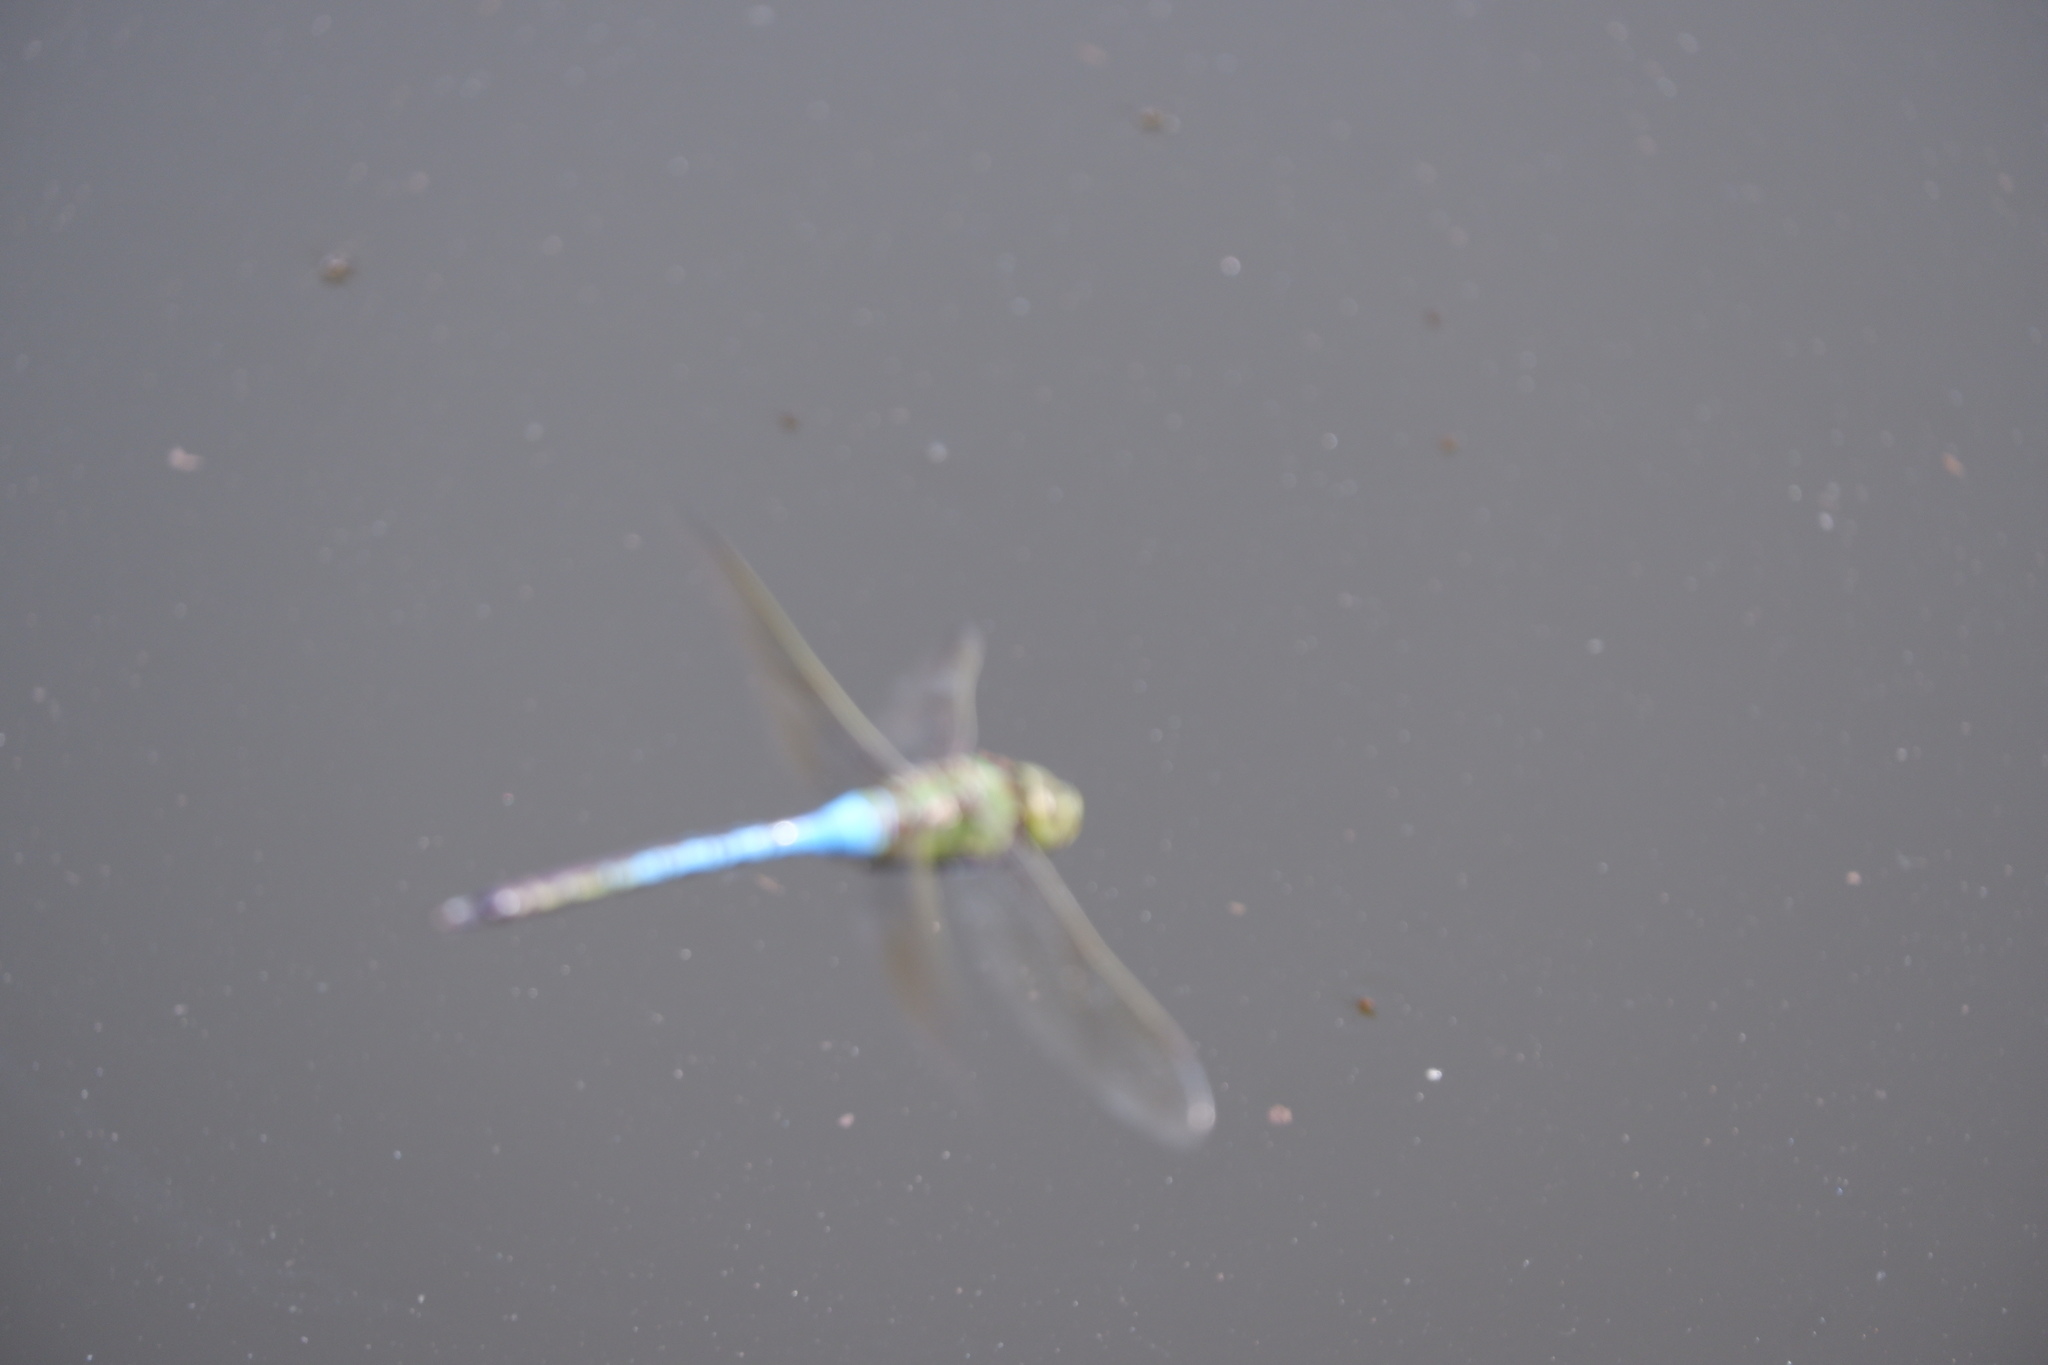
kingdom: Animalia
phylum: Arthropoda
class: Insecta
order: Odonata
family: Aeshnidae
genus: Anax
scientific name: Anax junius
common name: Common green darner
